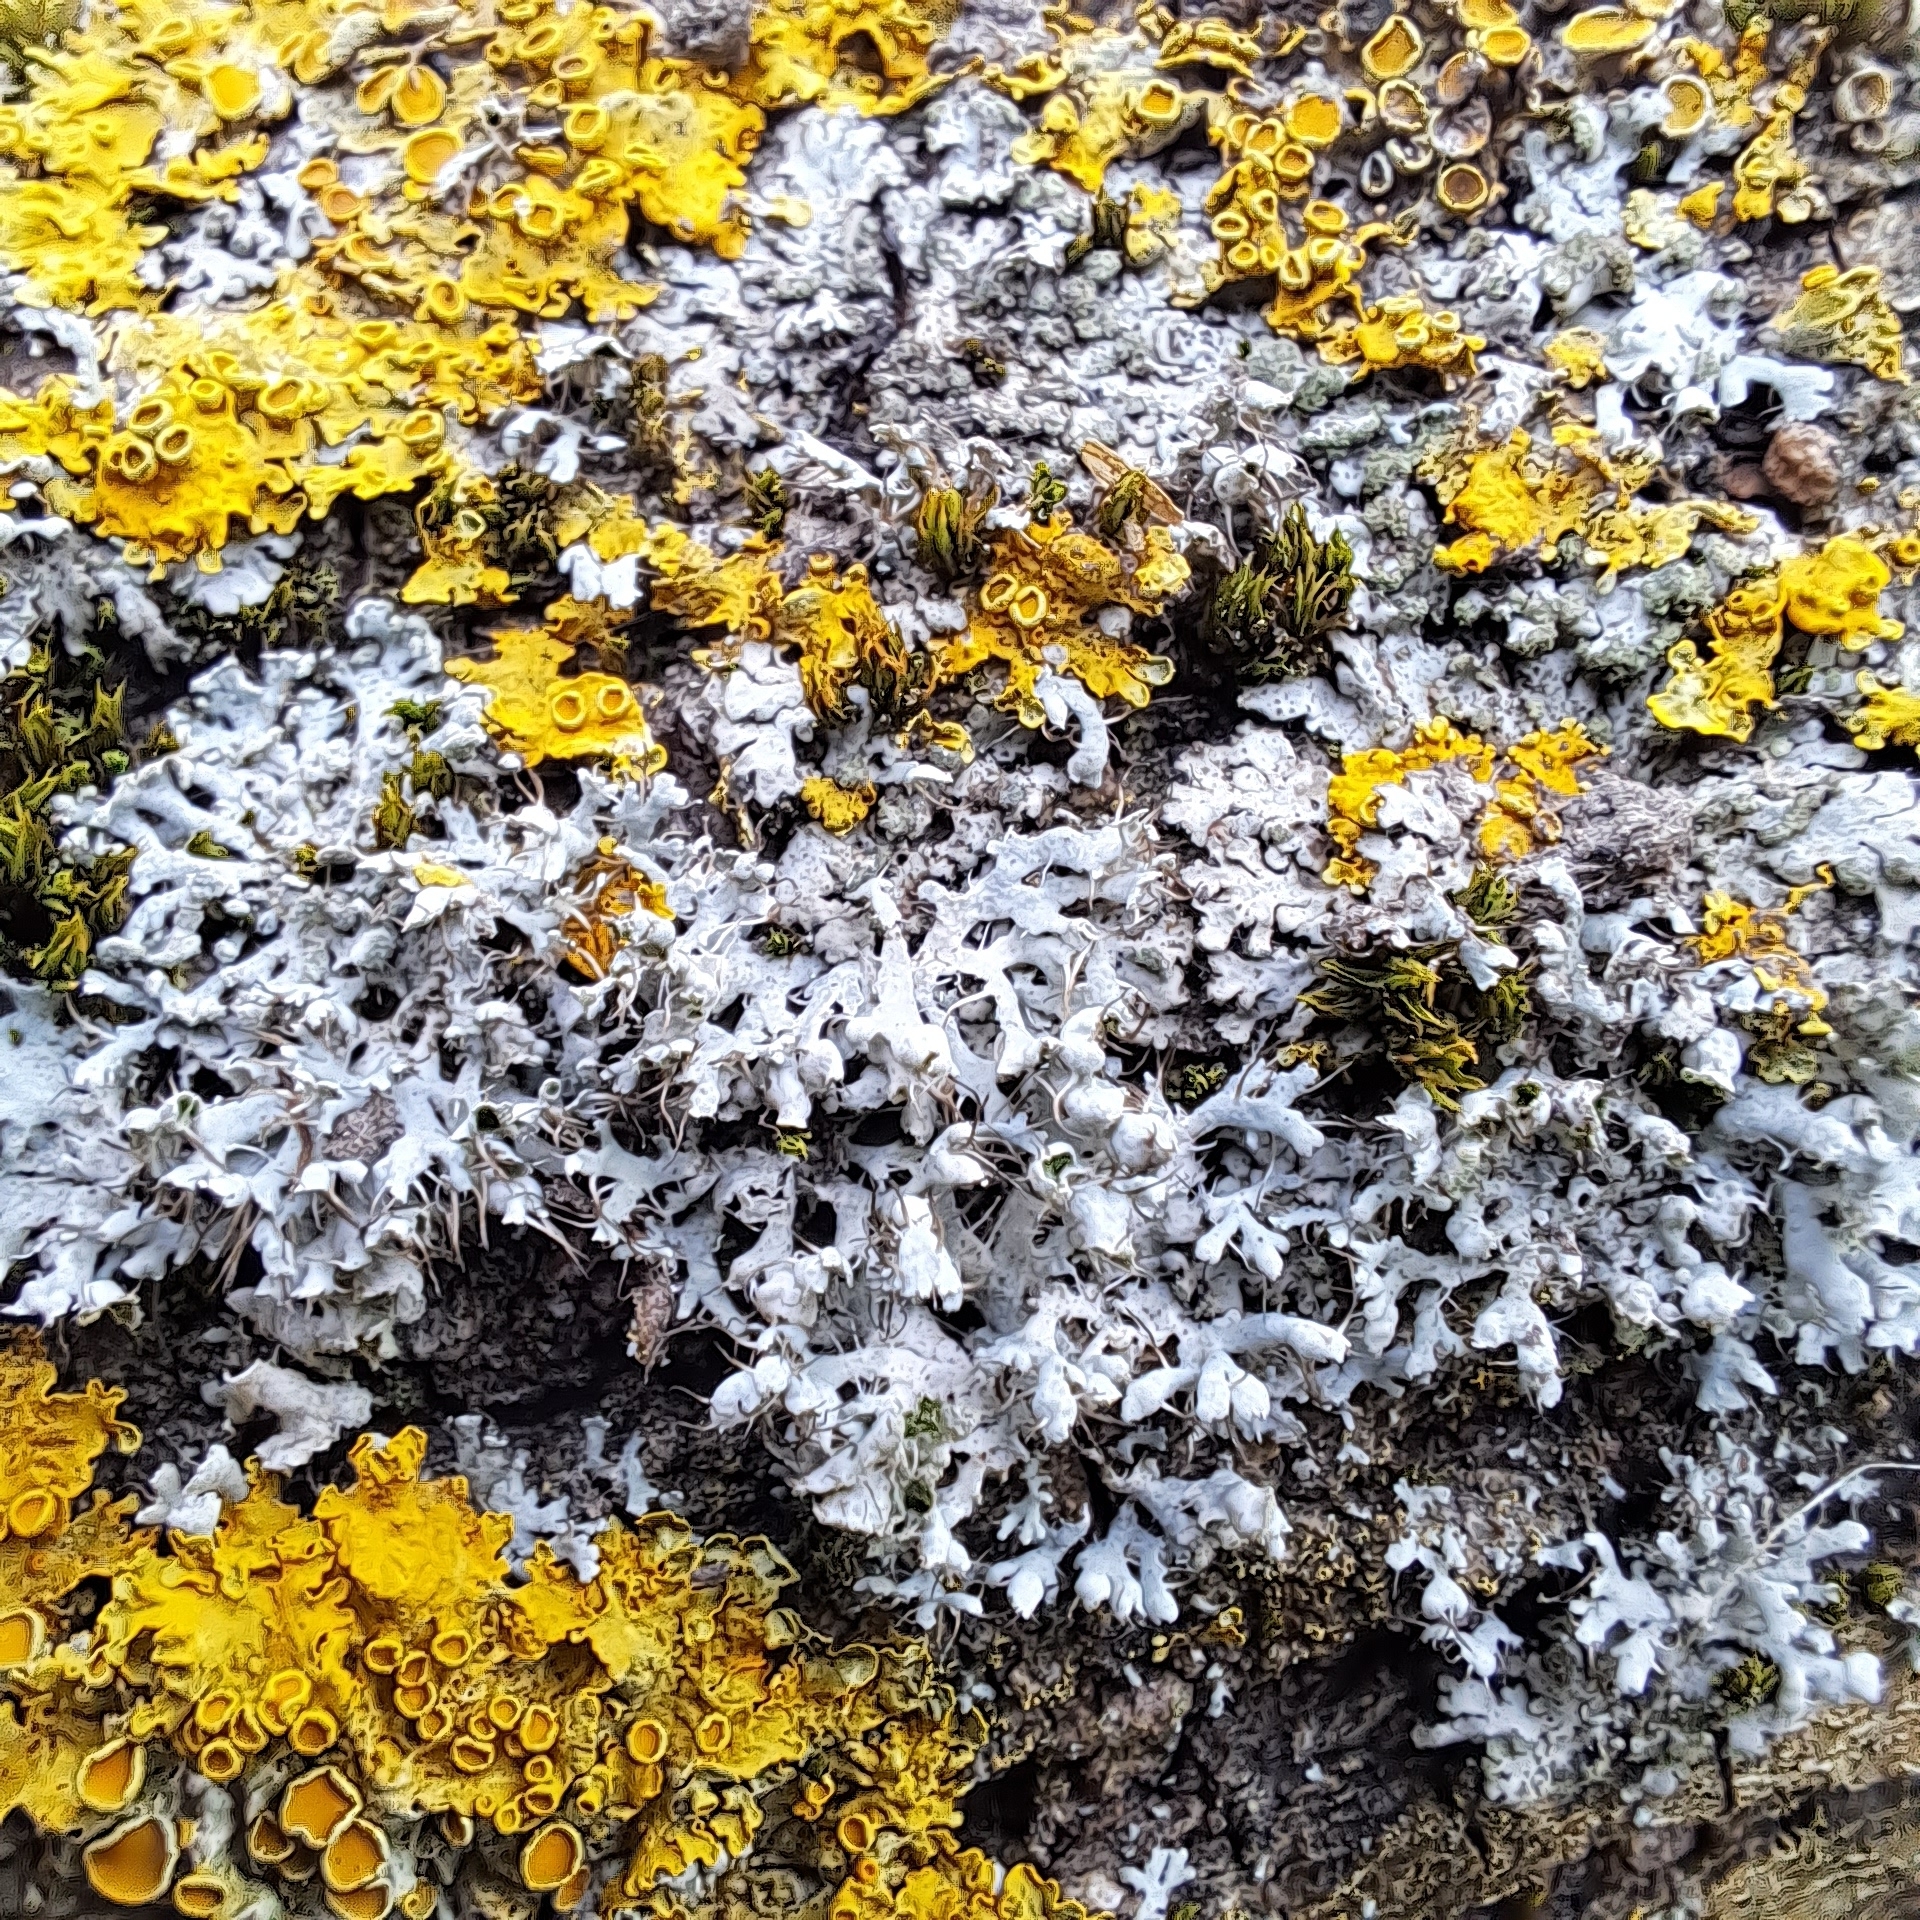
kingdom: Fungi
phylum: Ascomycota
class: Lecanoromycetes
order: Caliciales
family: Physciaceae
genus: Physcia
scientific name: Physcia adscendens
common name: Hooded rosette lichen
